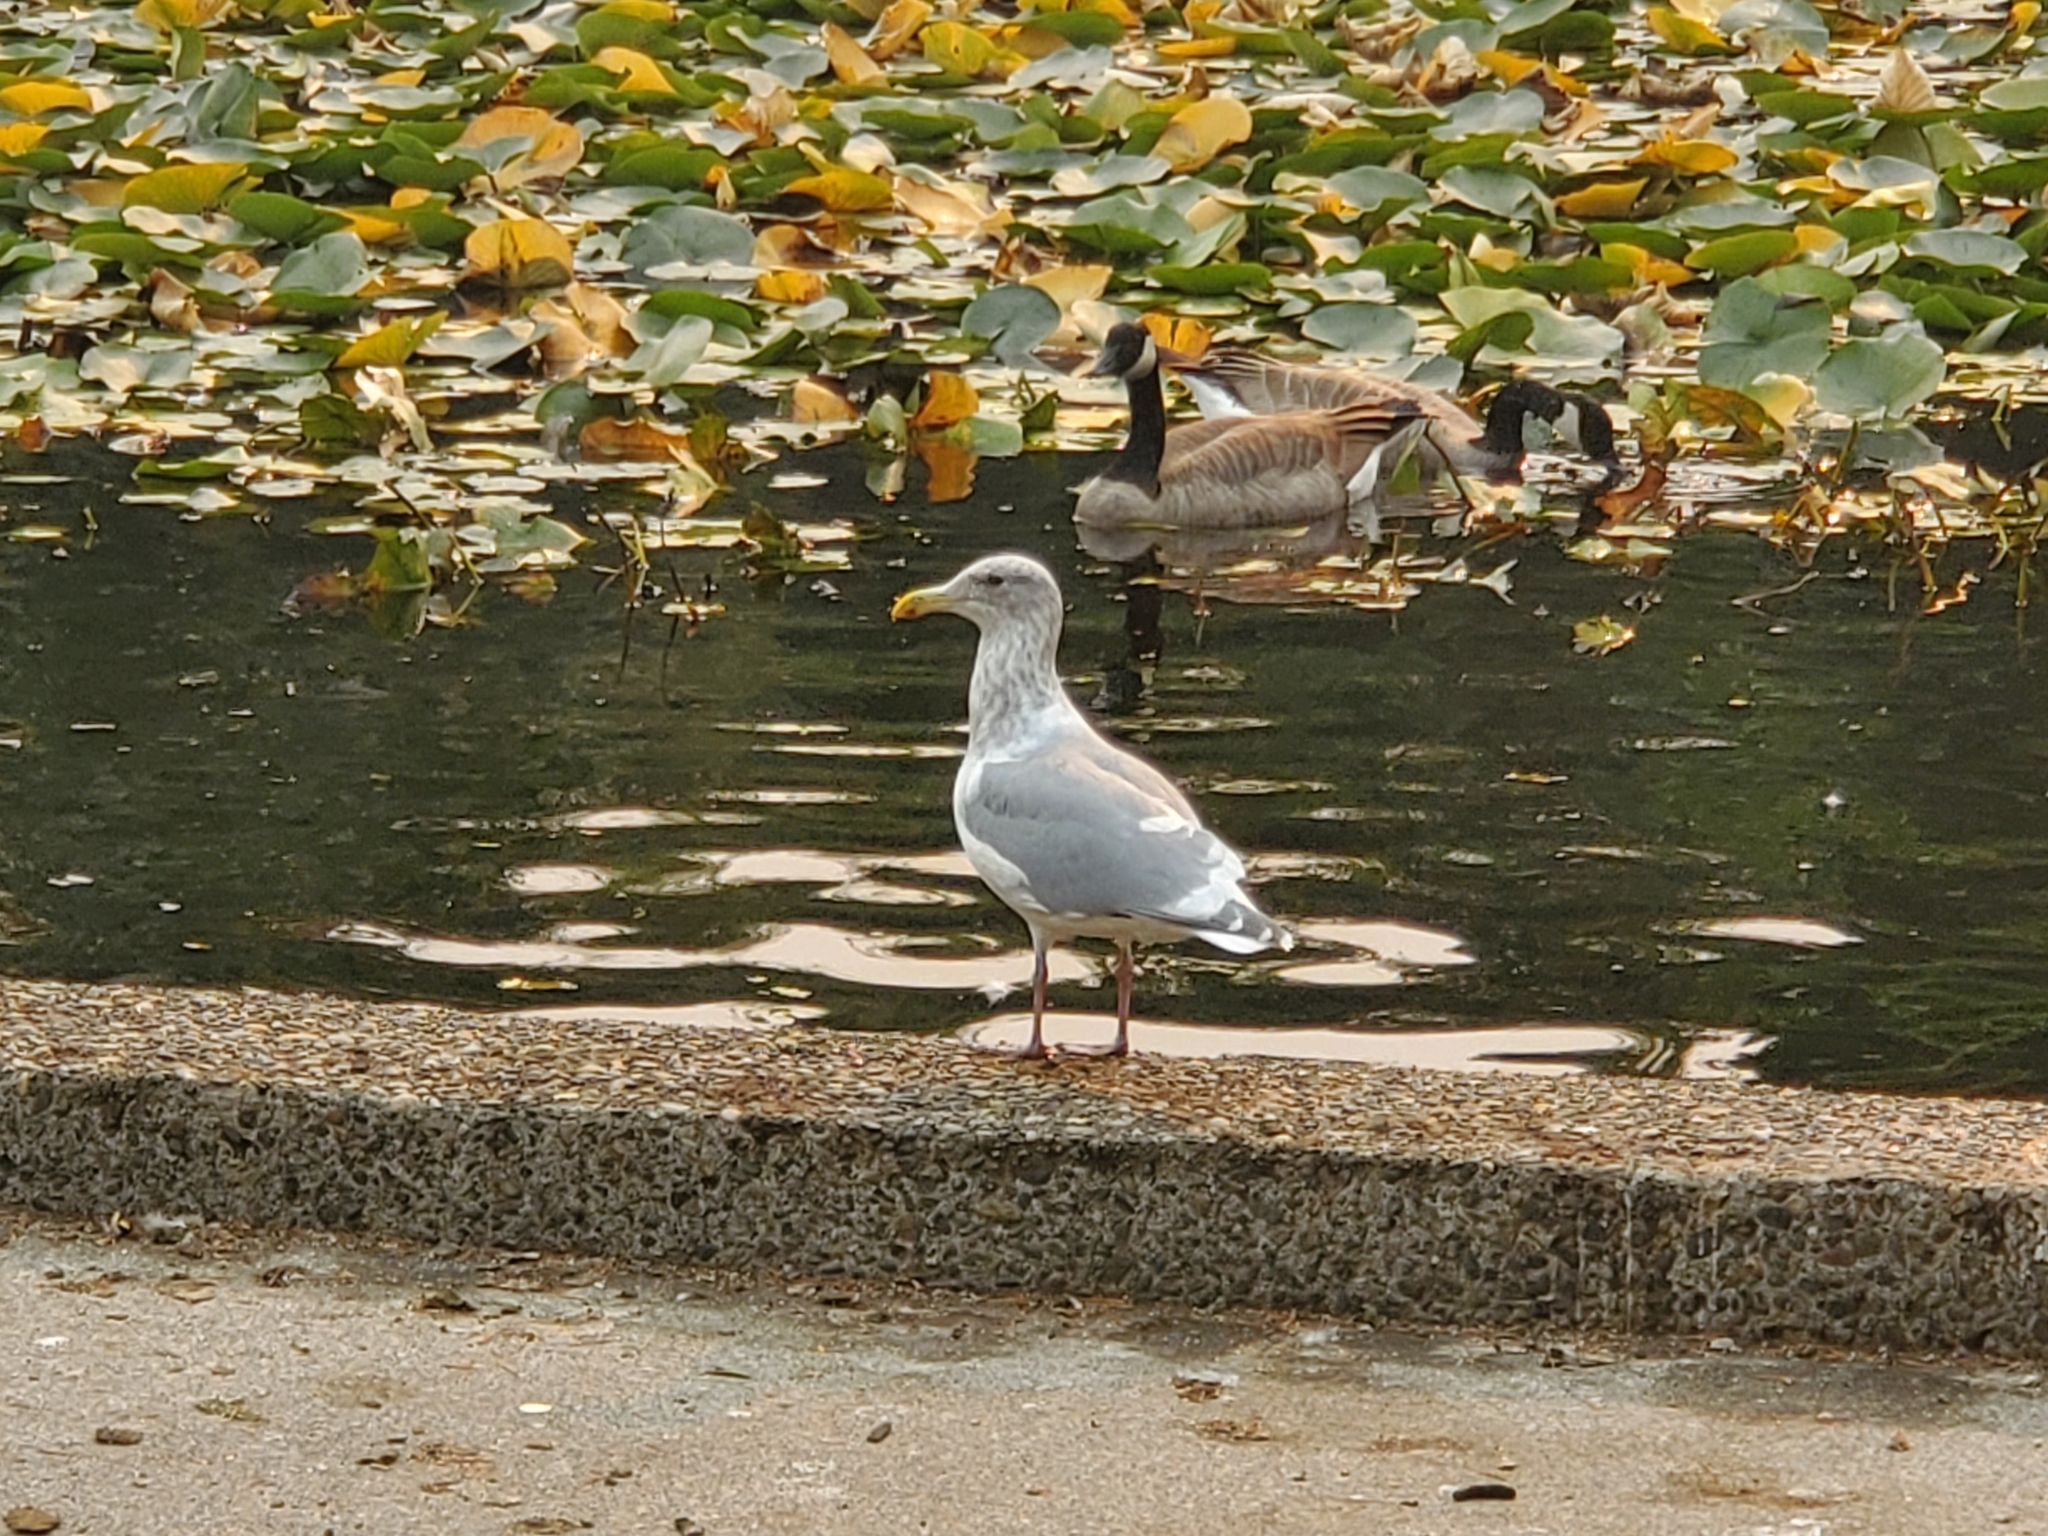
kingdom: Animalia
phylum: Chordata
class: Aves
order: Charadriiformes
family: Laridae
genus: Larus
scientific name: Larus
